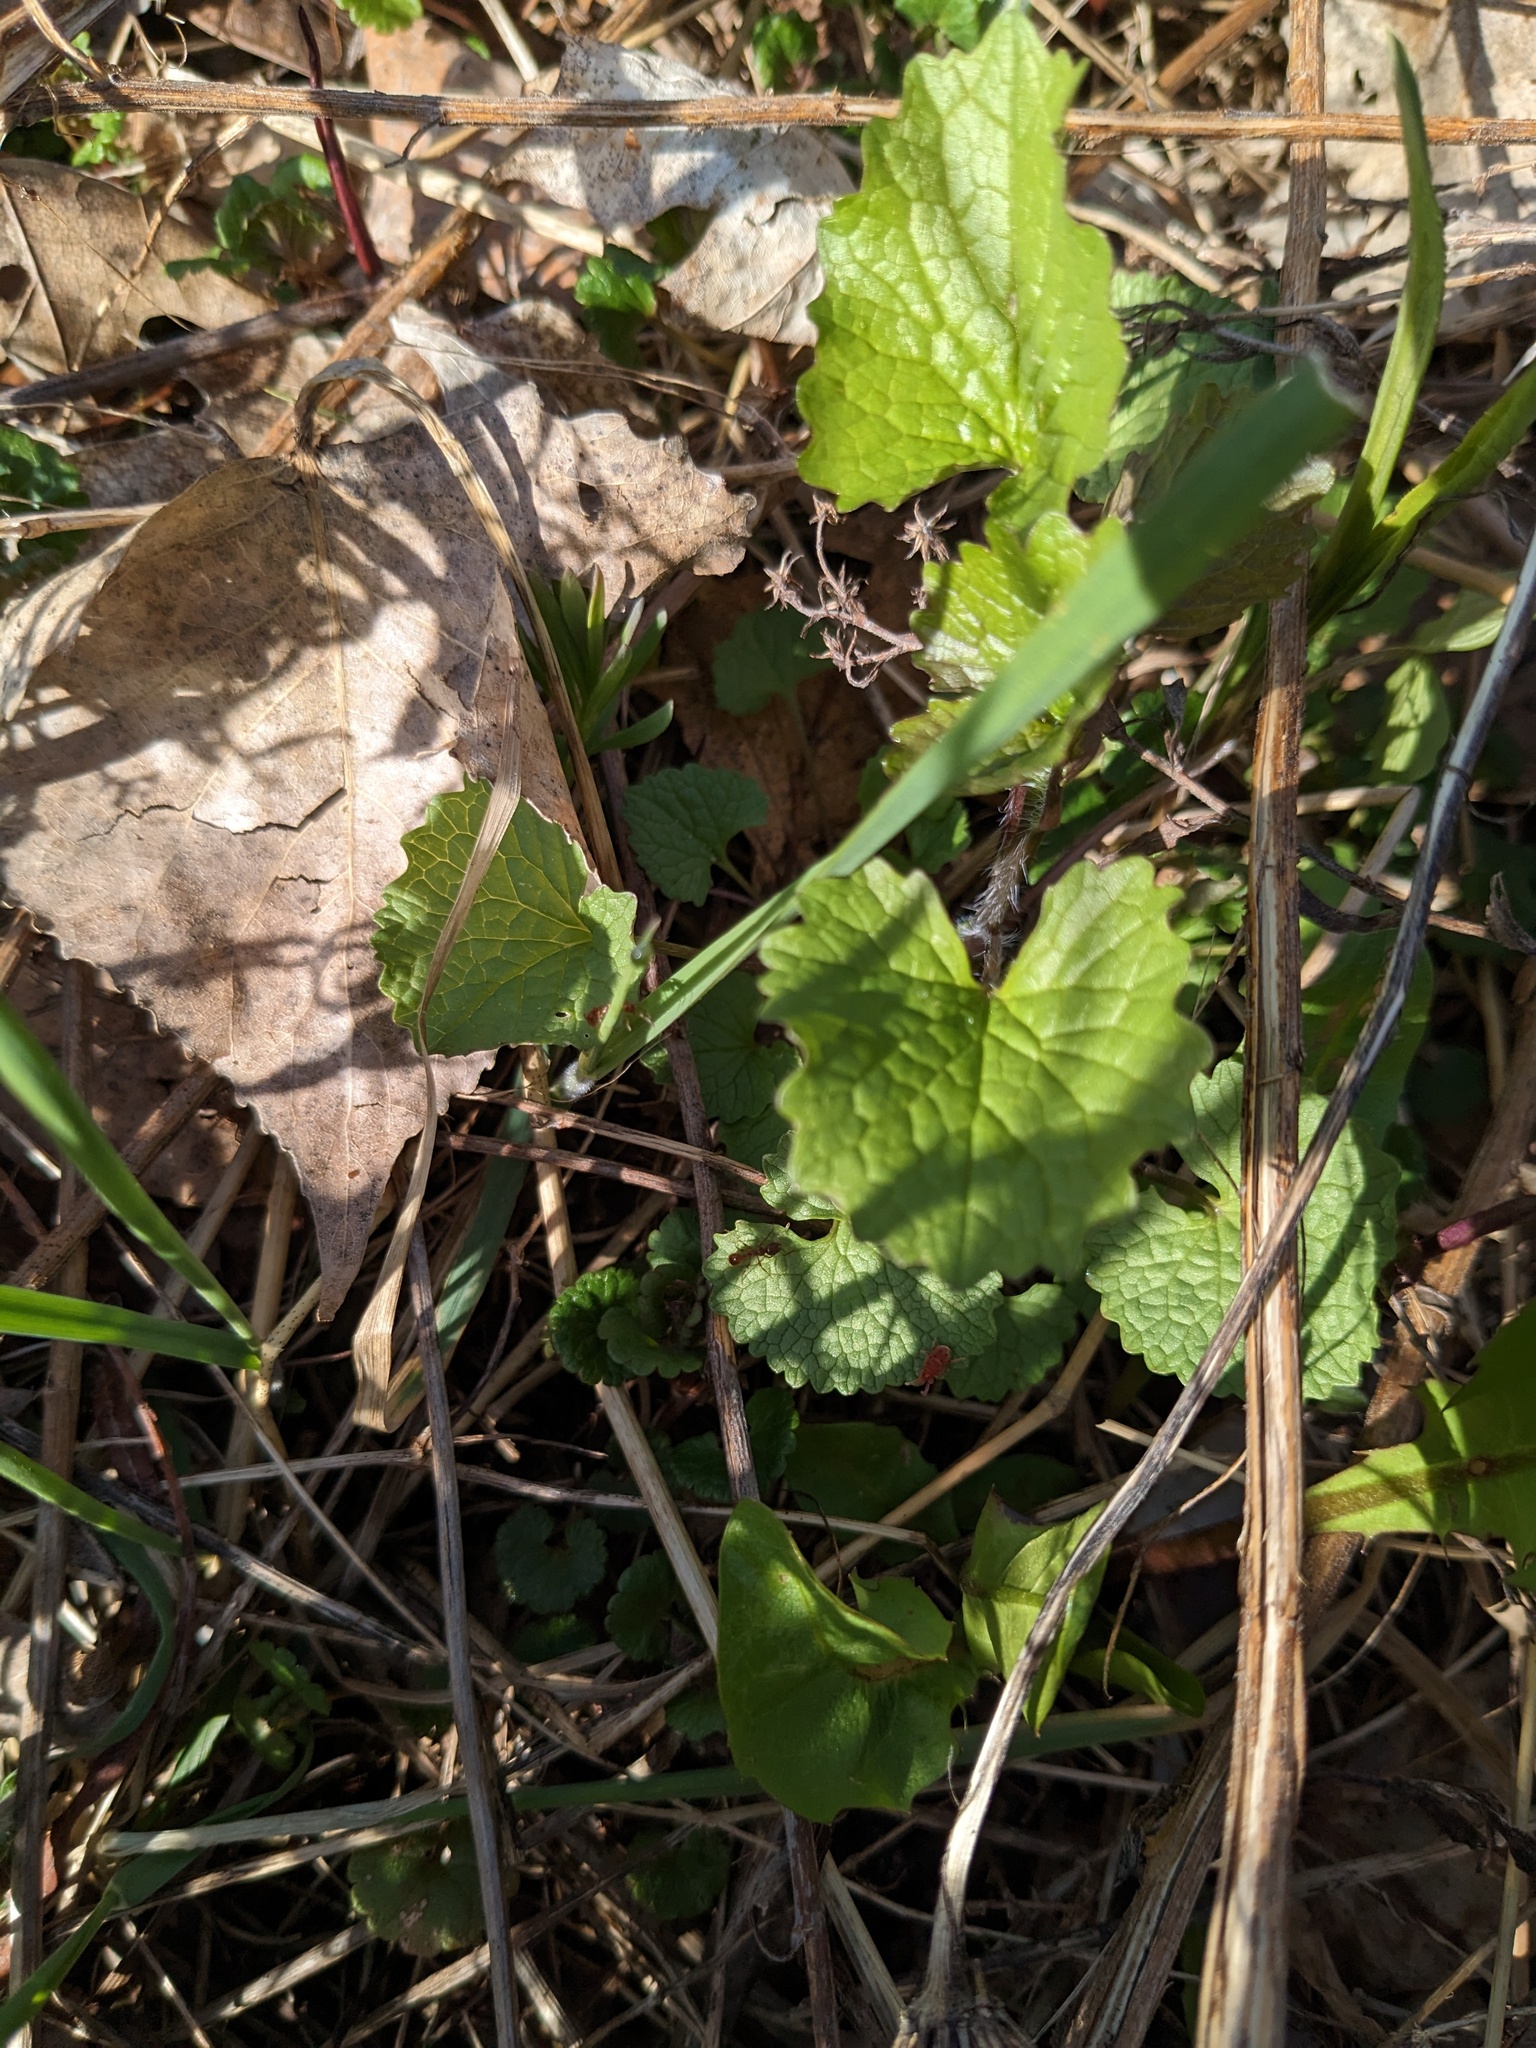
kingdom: Plantae
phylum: Tracheophyta
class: Magnoliopsida
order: Brassicales
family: Brassicaceae
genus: Alliaria
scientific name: Alliaria petiolata
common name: Garlic mustard
